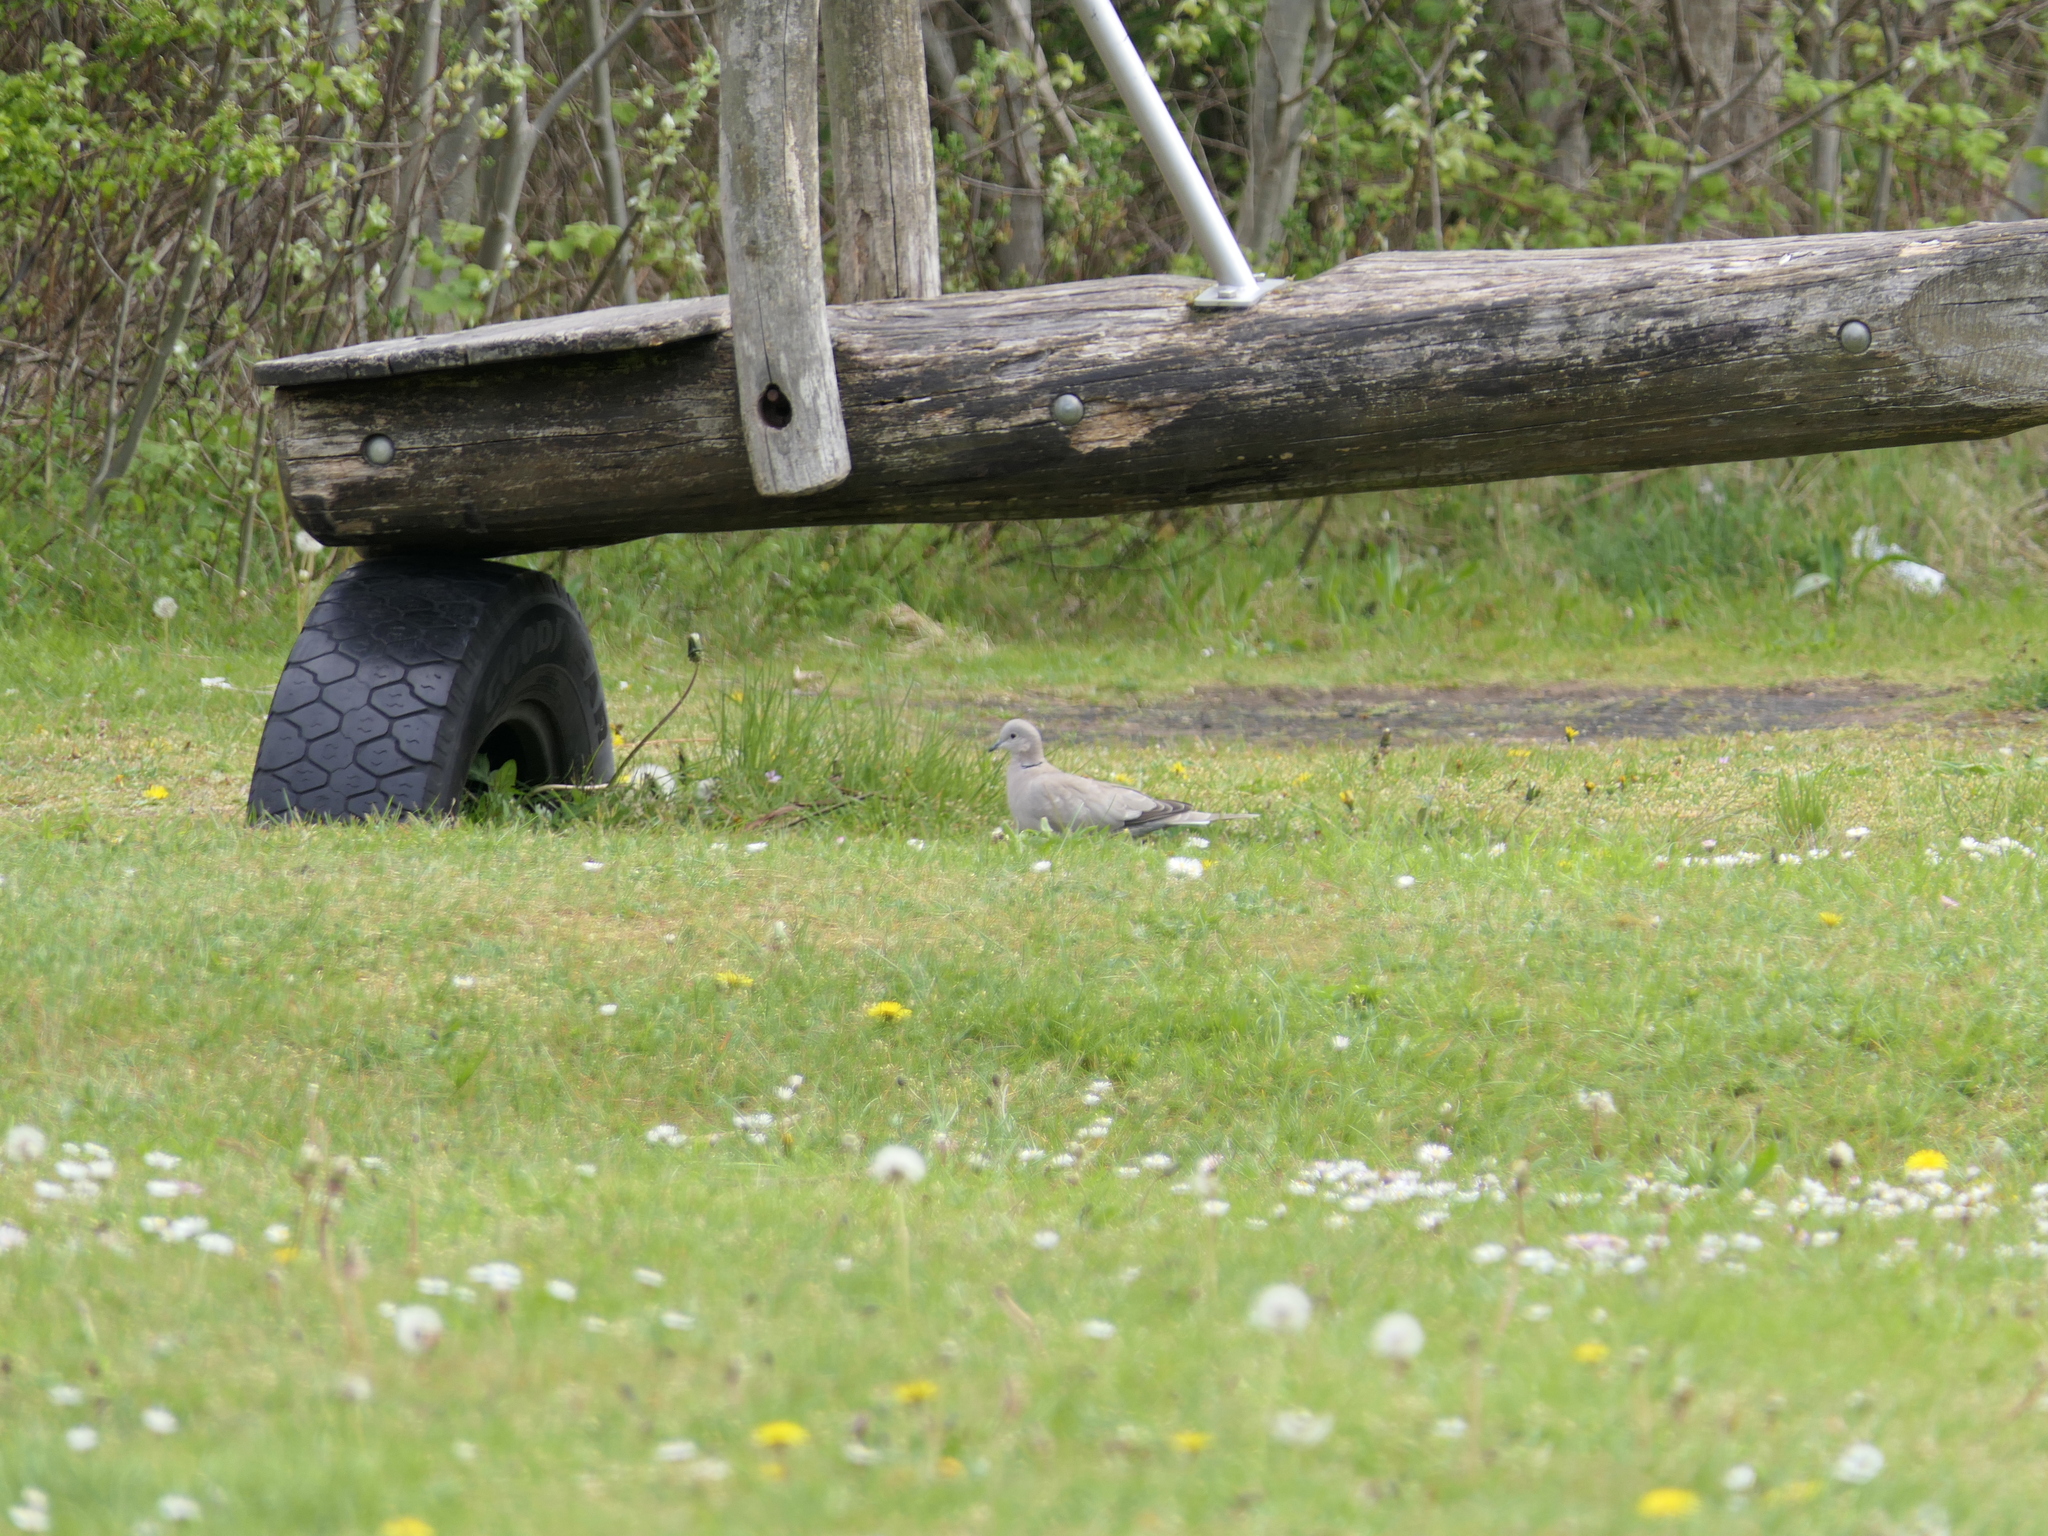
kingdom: Animalia
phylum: Chordata
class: Aves
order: Columbiformes
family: Columbidae
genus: Streptopelia
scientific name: Streptopelia decaocto
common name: Eurasian collared dove
